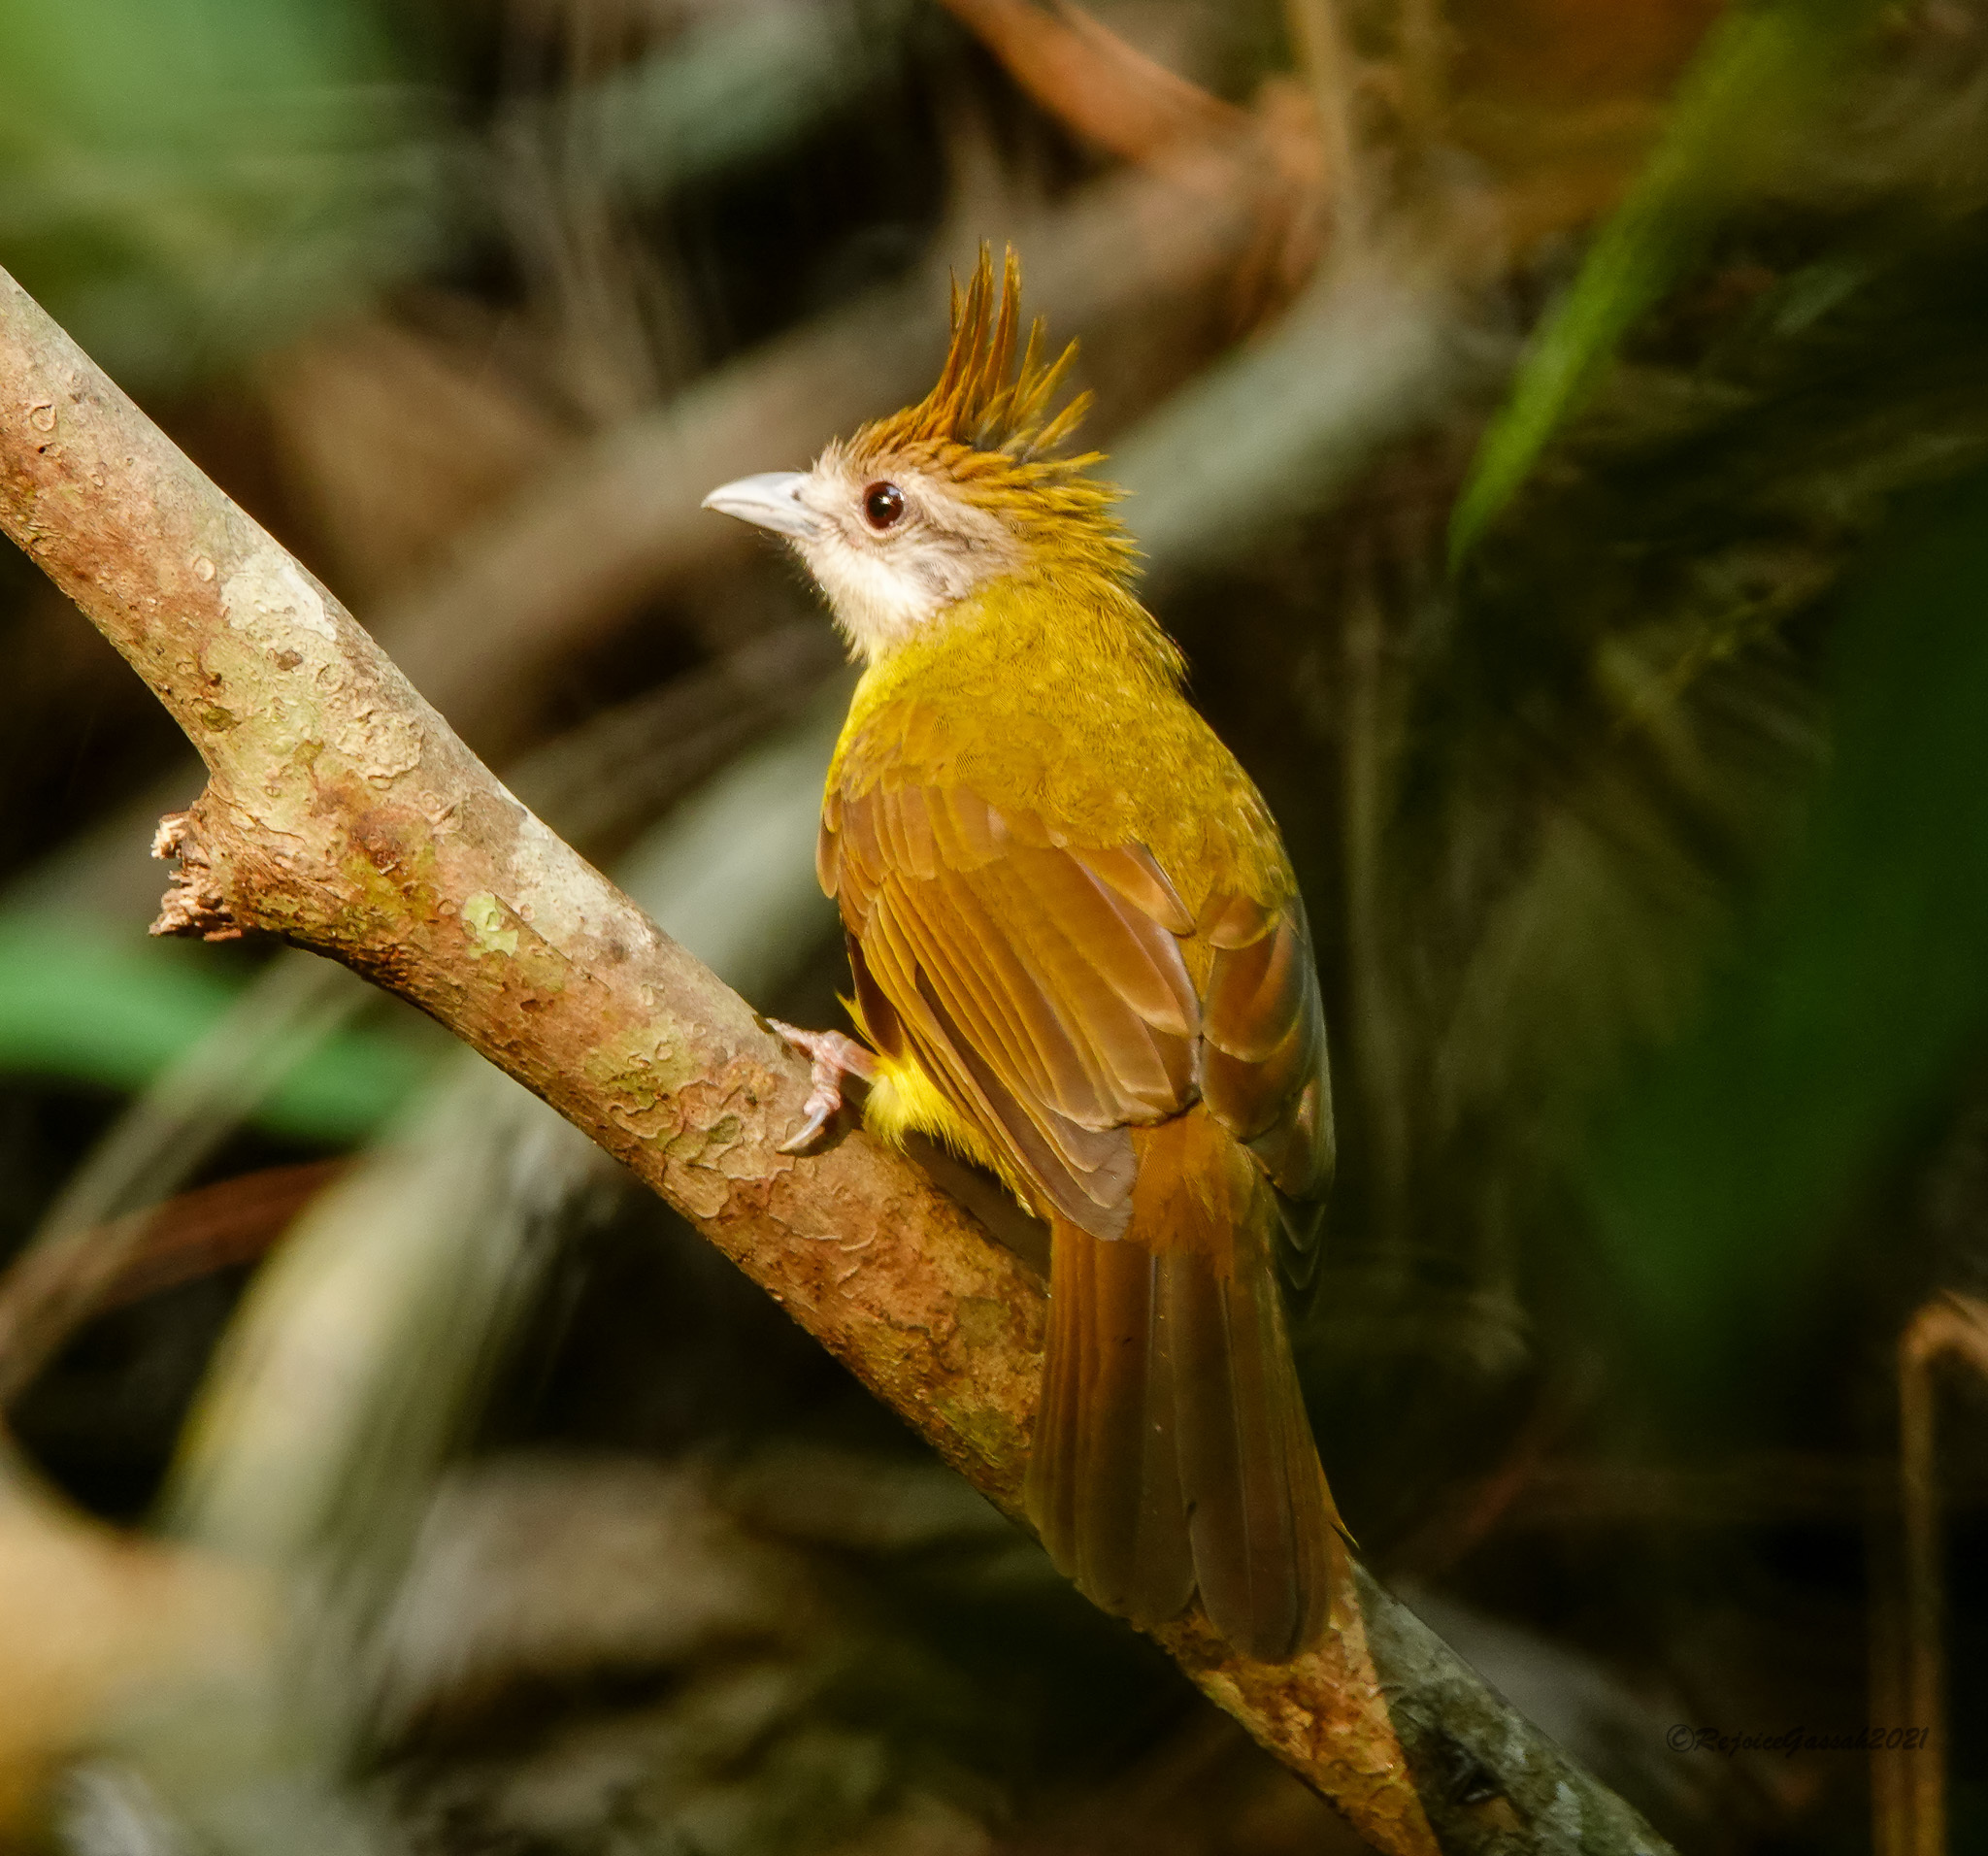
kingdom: Animalia
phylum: Chordata
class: Aves
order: Passeriformes
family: Pycnonotidae
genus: Alophoixus
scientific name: Alophoixus flaveolus
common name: White-throated bulbul
